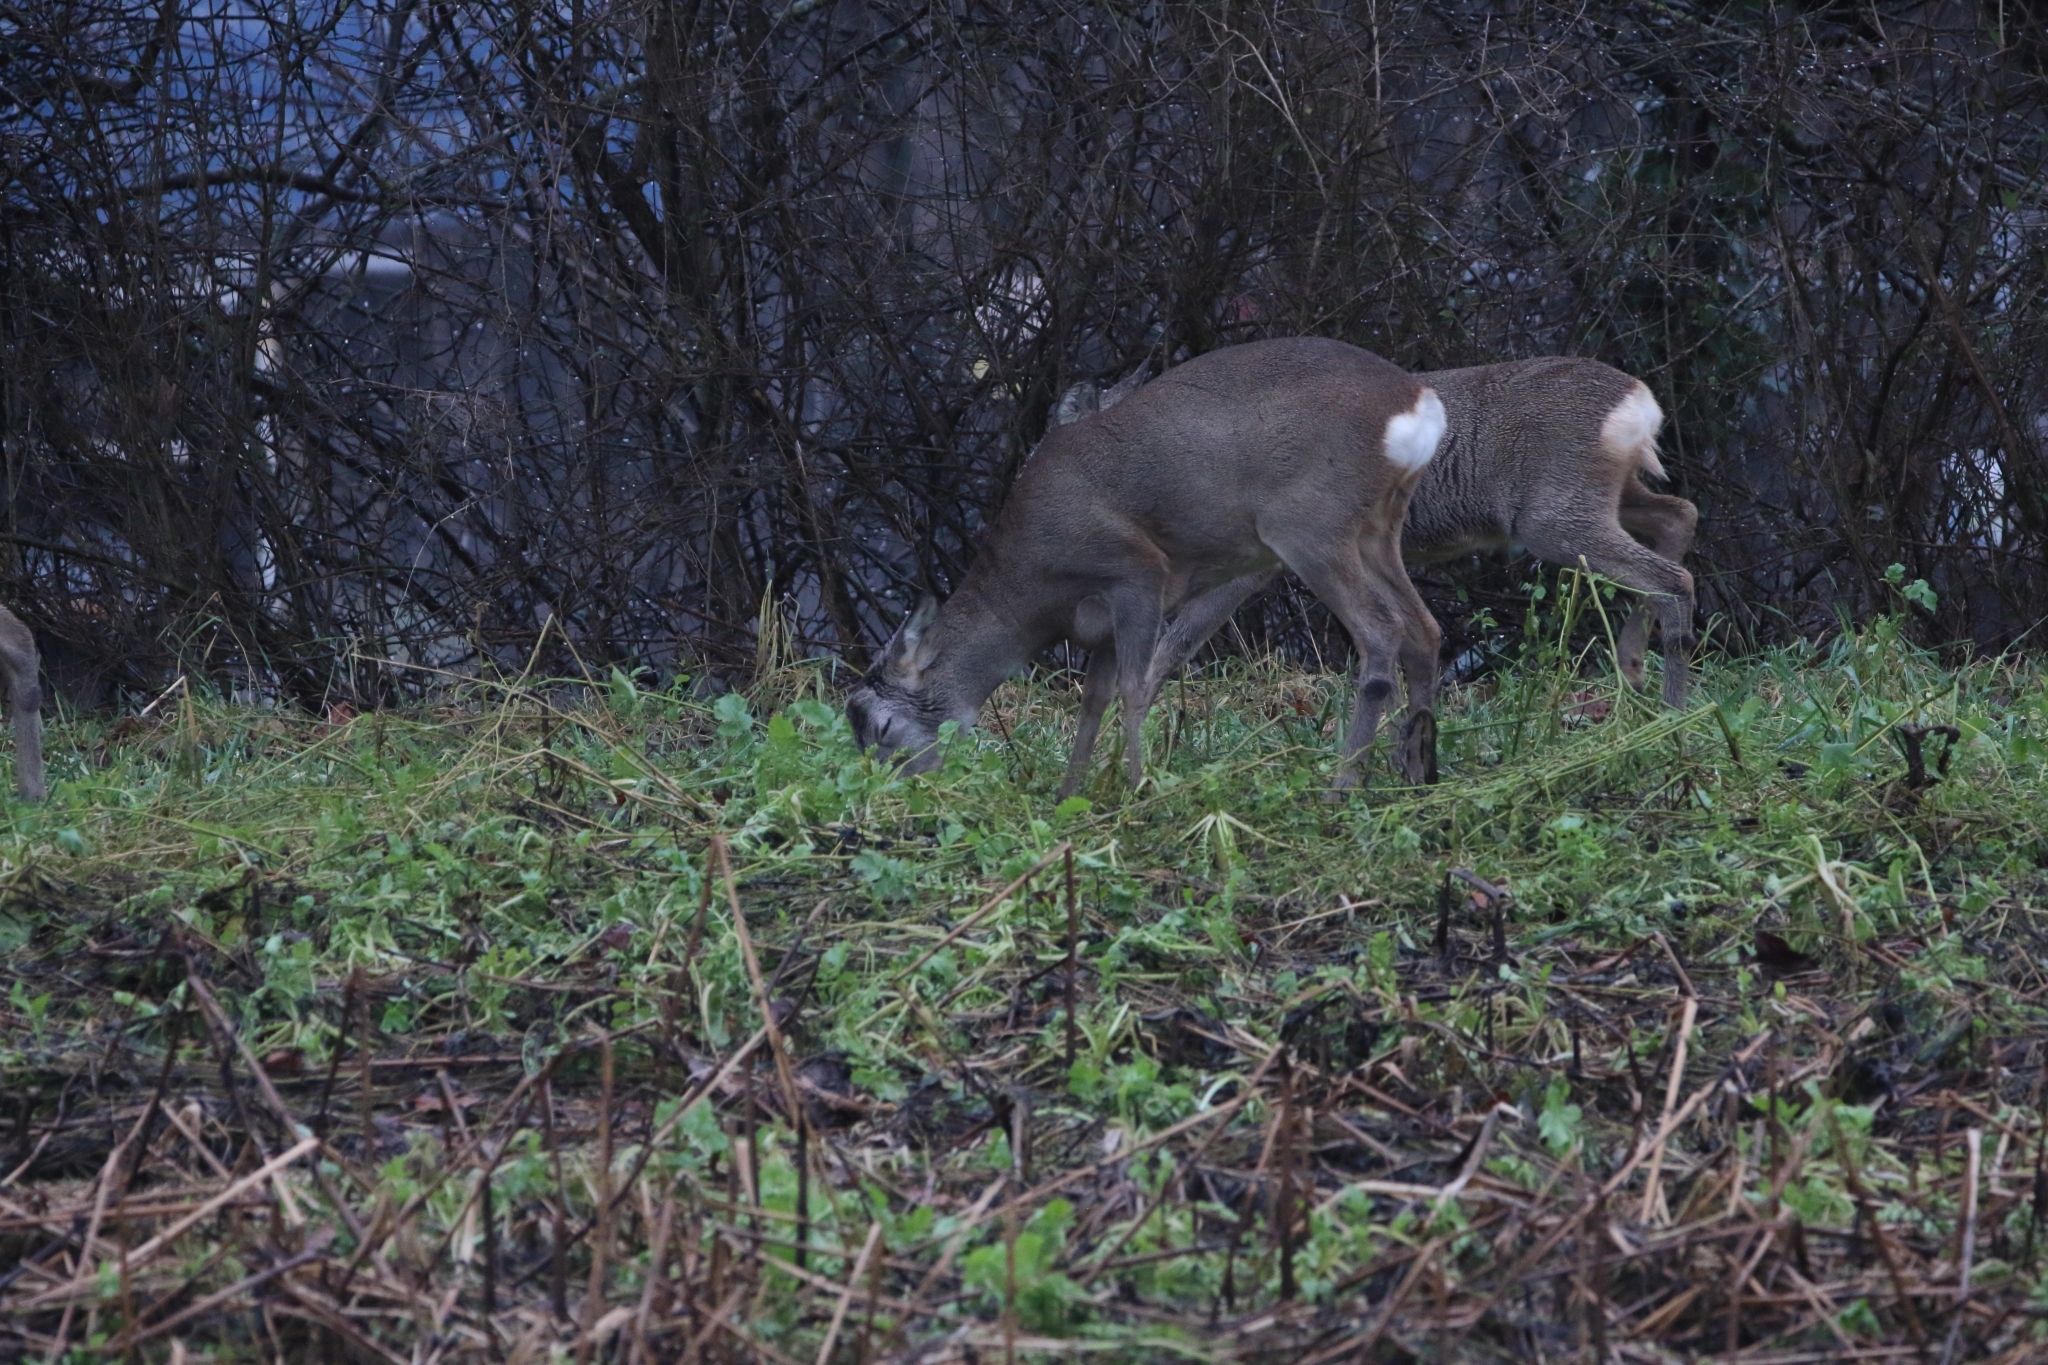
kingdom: Animalia
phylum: Chordata
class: Mammalia
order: Artiodactyla
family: Cervidae
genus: Capreolus
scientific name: Capreolus capreolus
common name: Western roe deer
